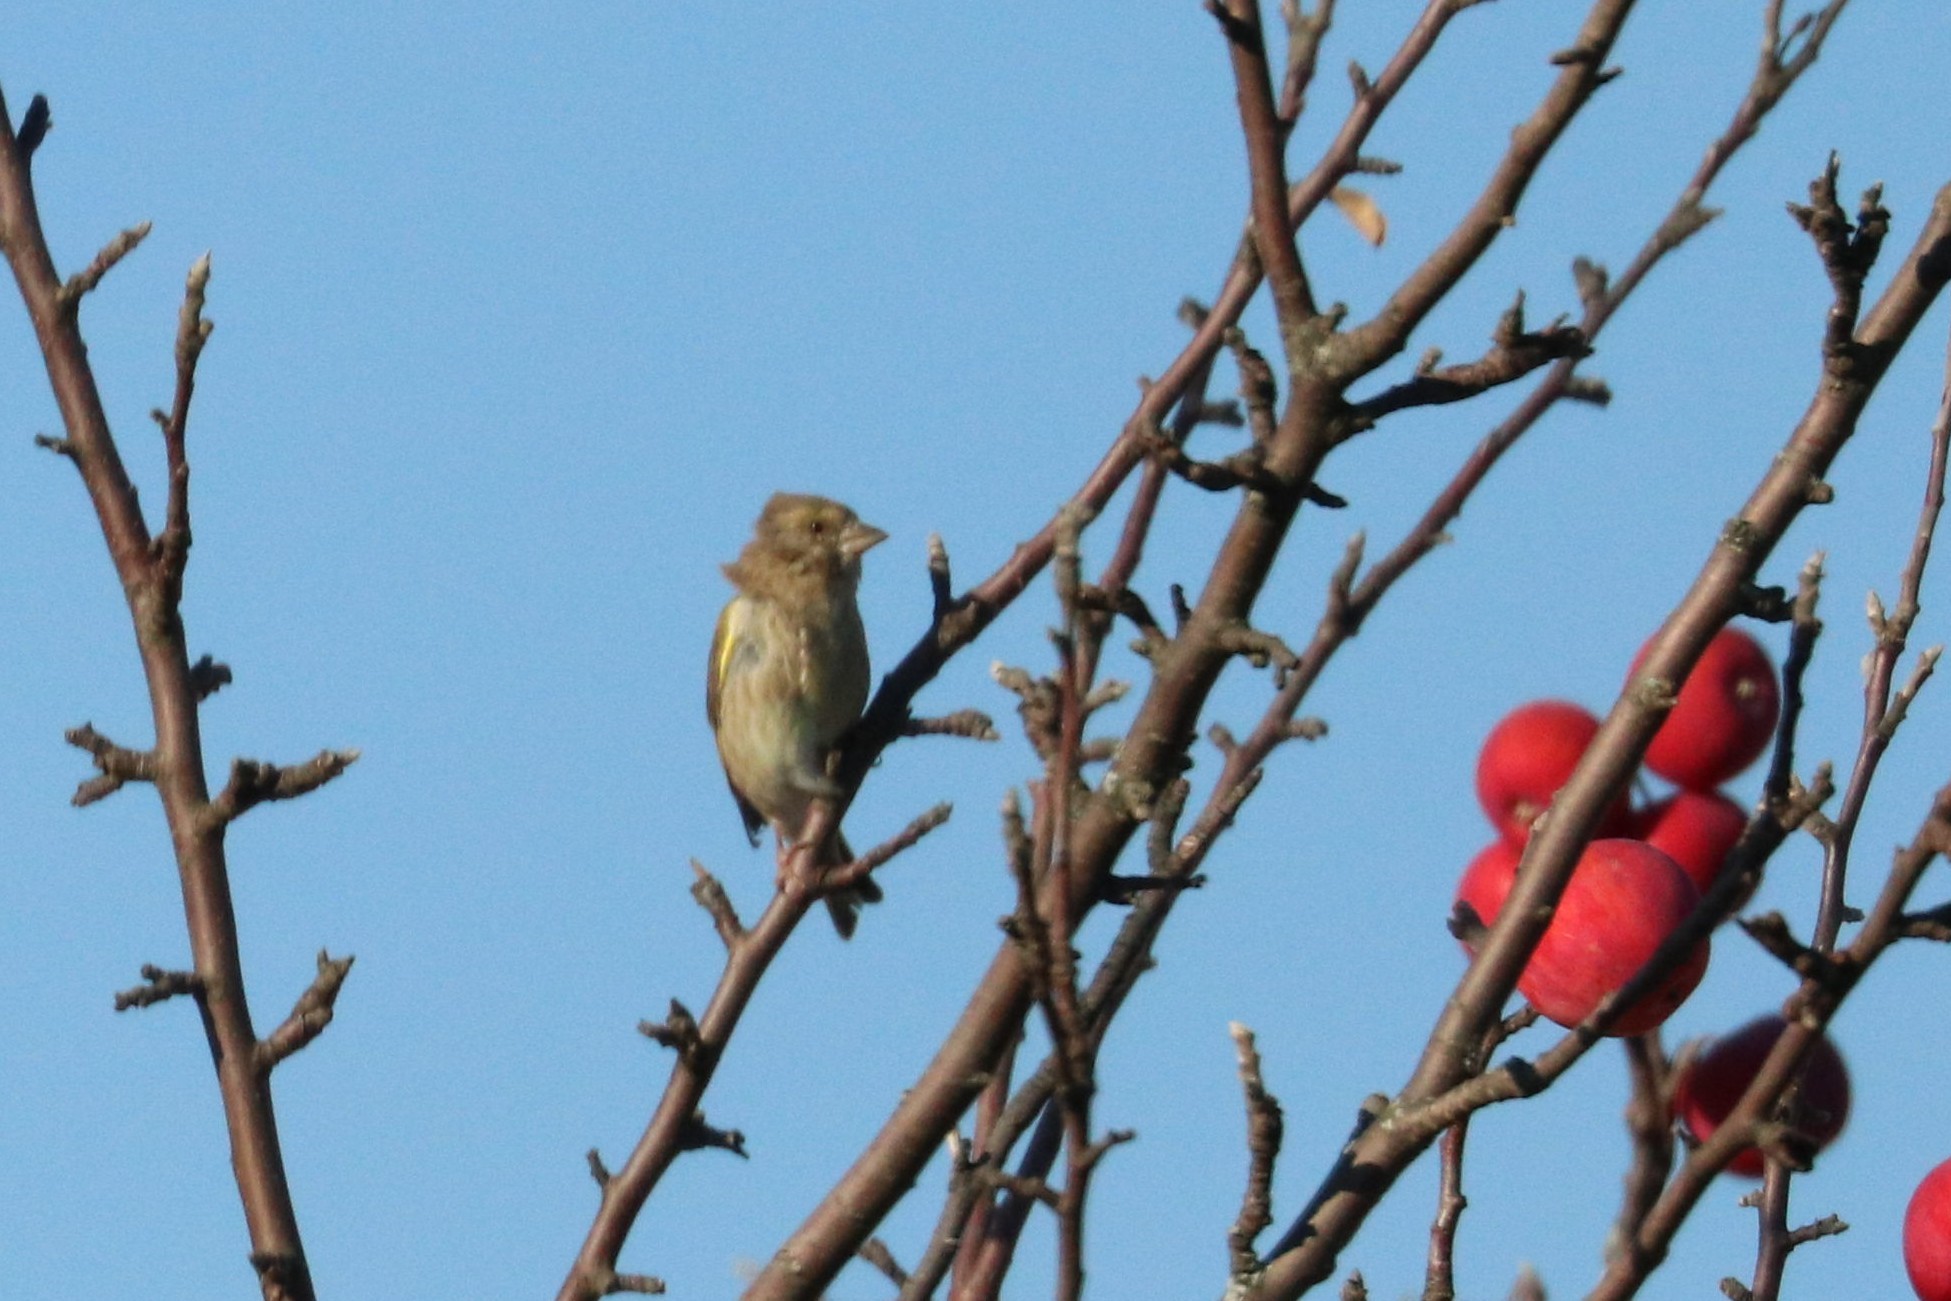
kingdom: Plantae
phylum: Tracheophyta
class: Liliopsida
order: Poales
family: Poaceae
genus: Chloris
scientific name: Chloris chloris
